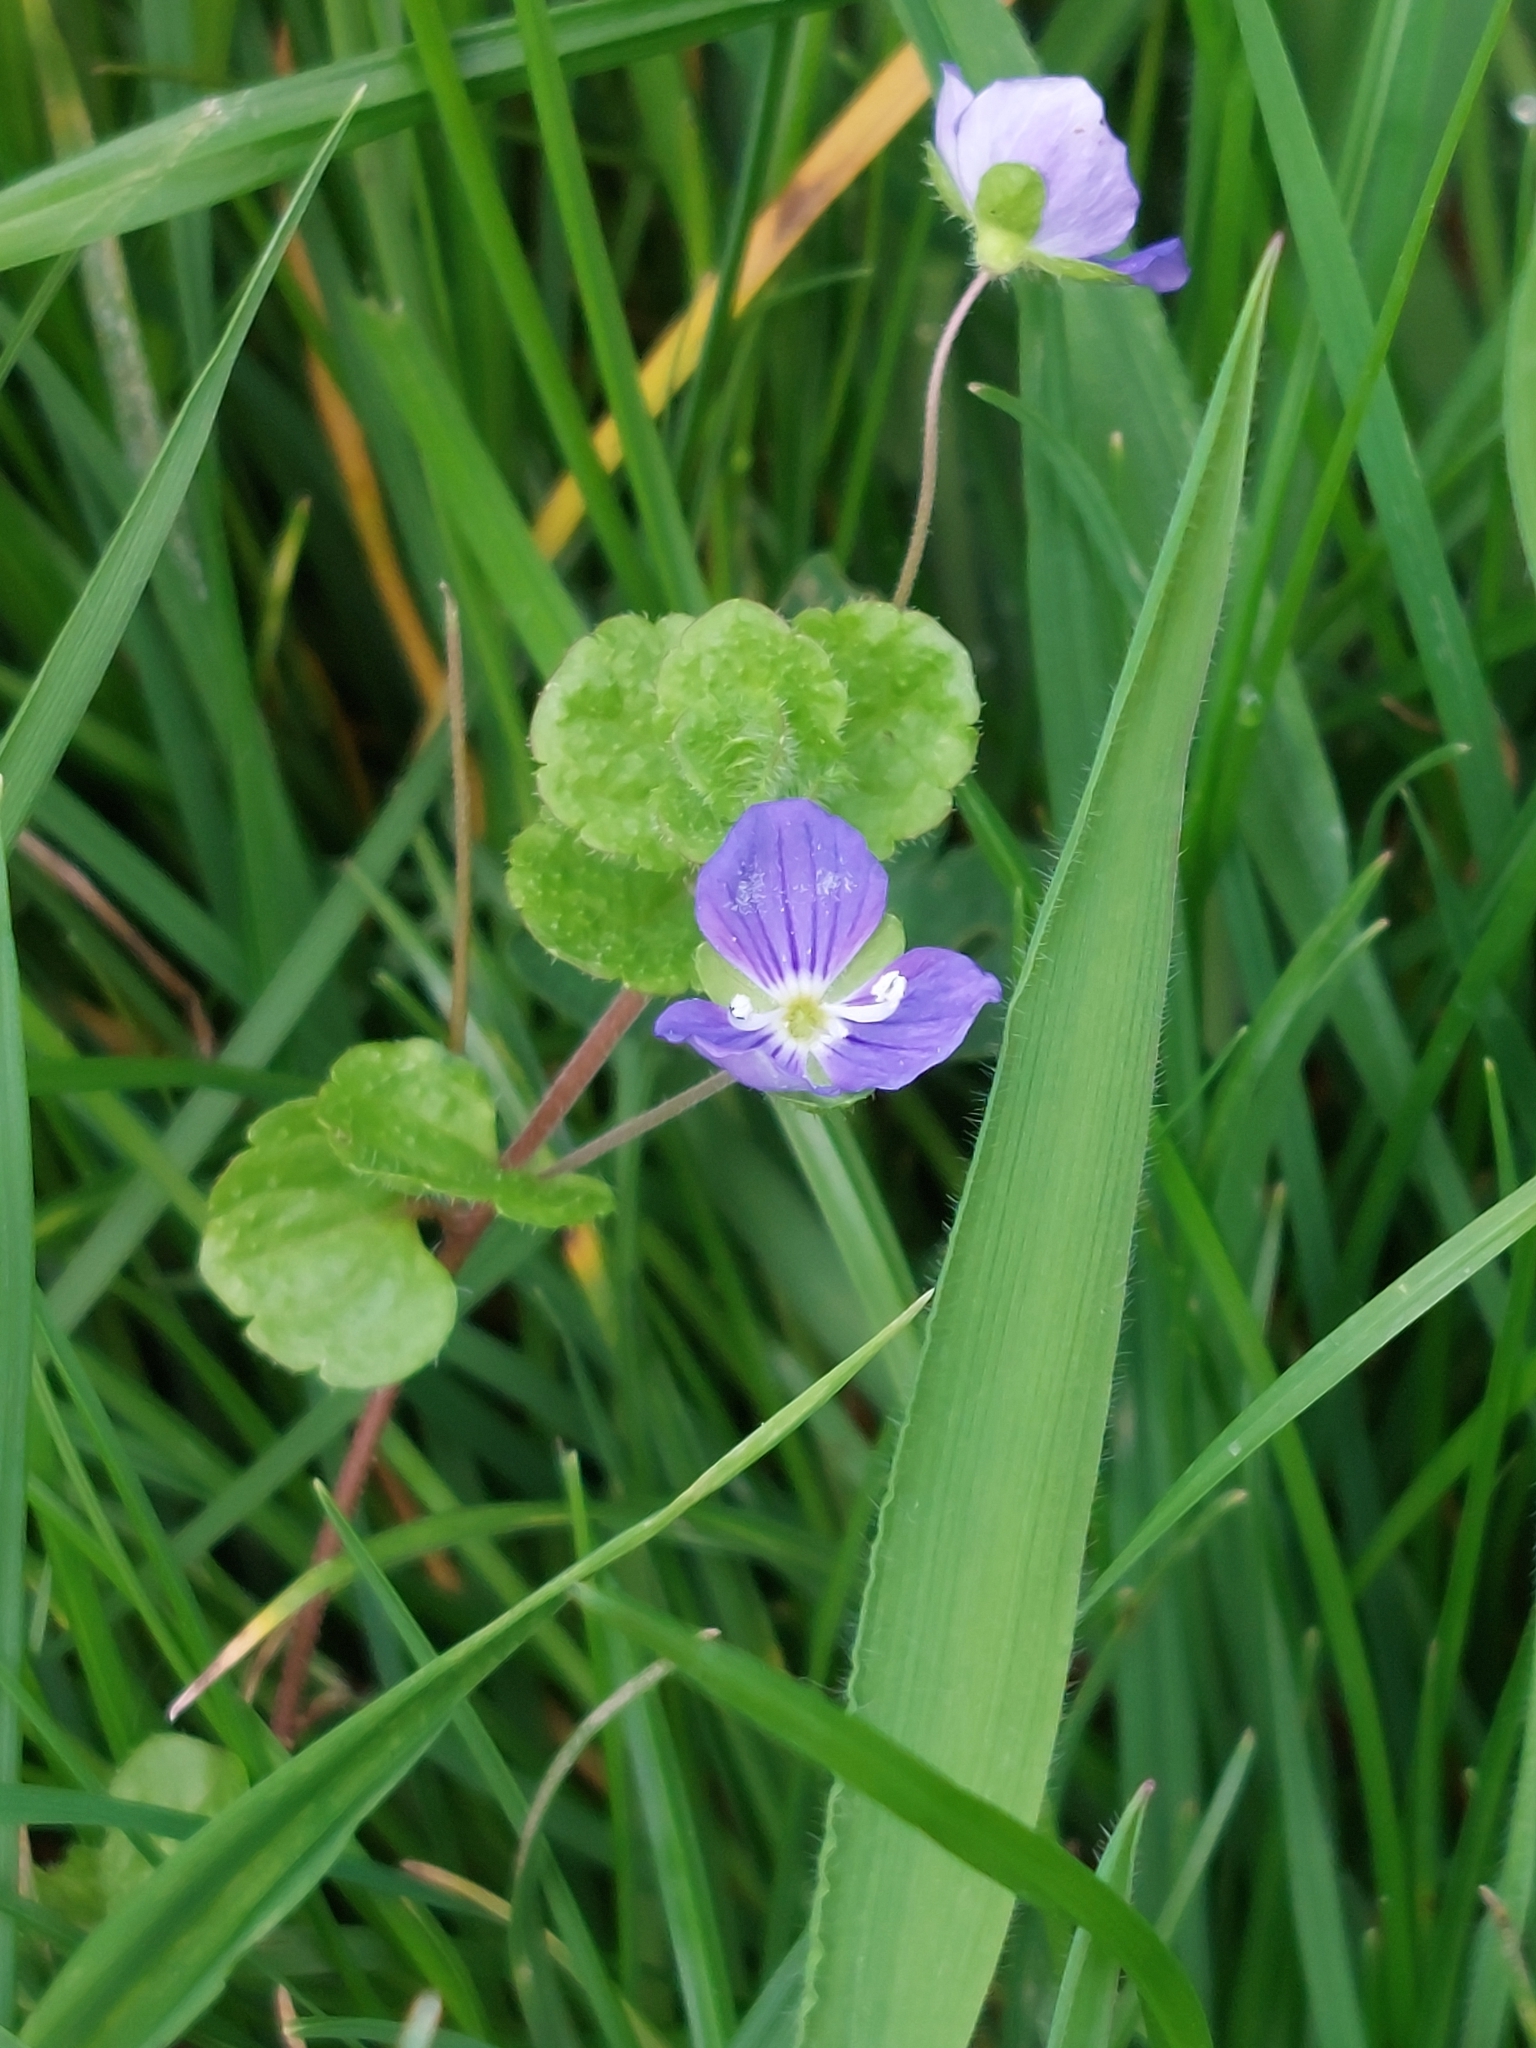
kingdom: Plantae
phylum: Tracheophyta
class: Magnoliopsida
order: Lamiales
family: Plantaginaceae
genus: Veronica
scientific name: Veronica filiformis
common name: Slender speedwell
